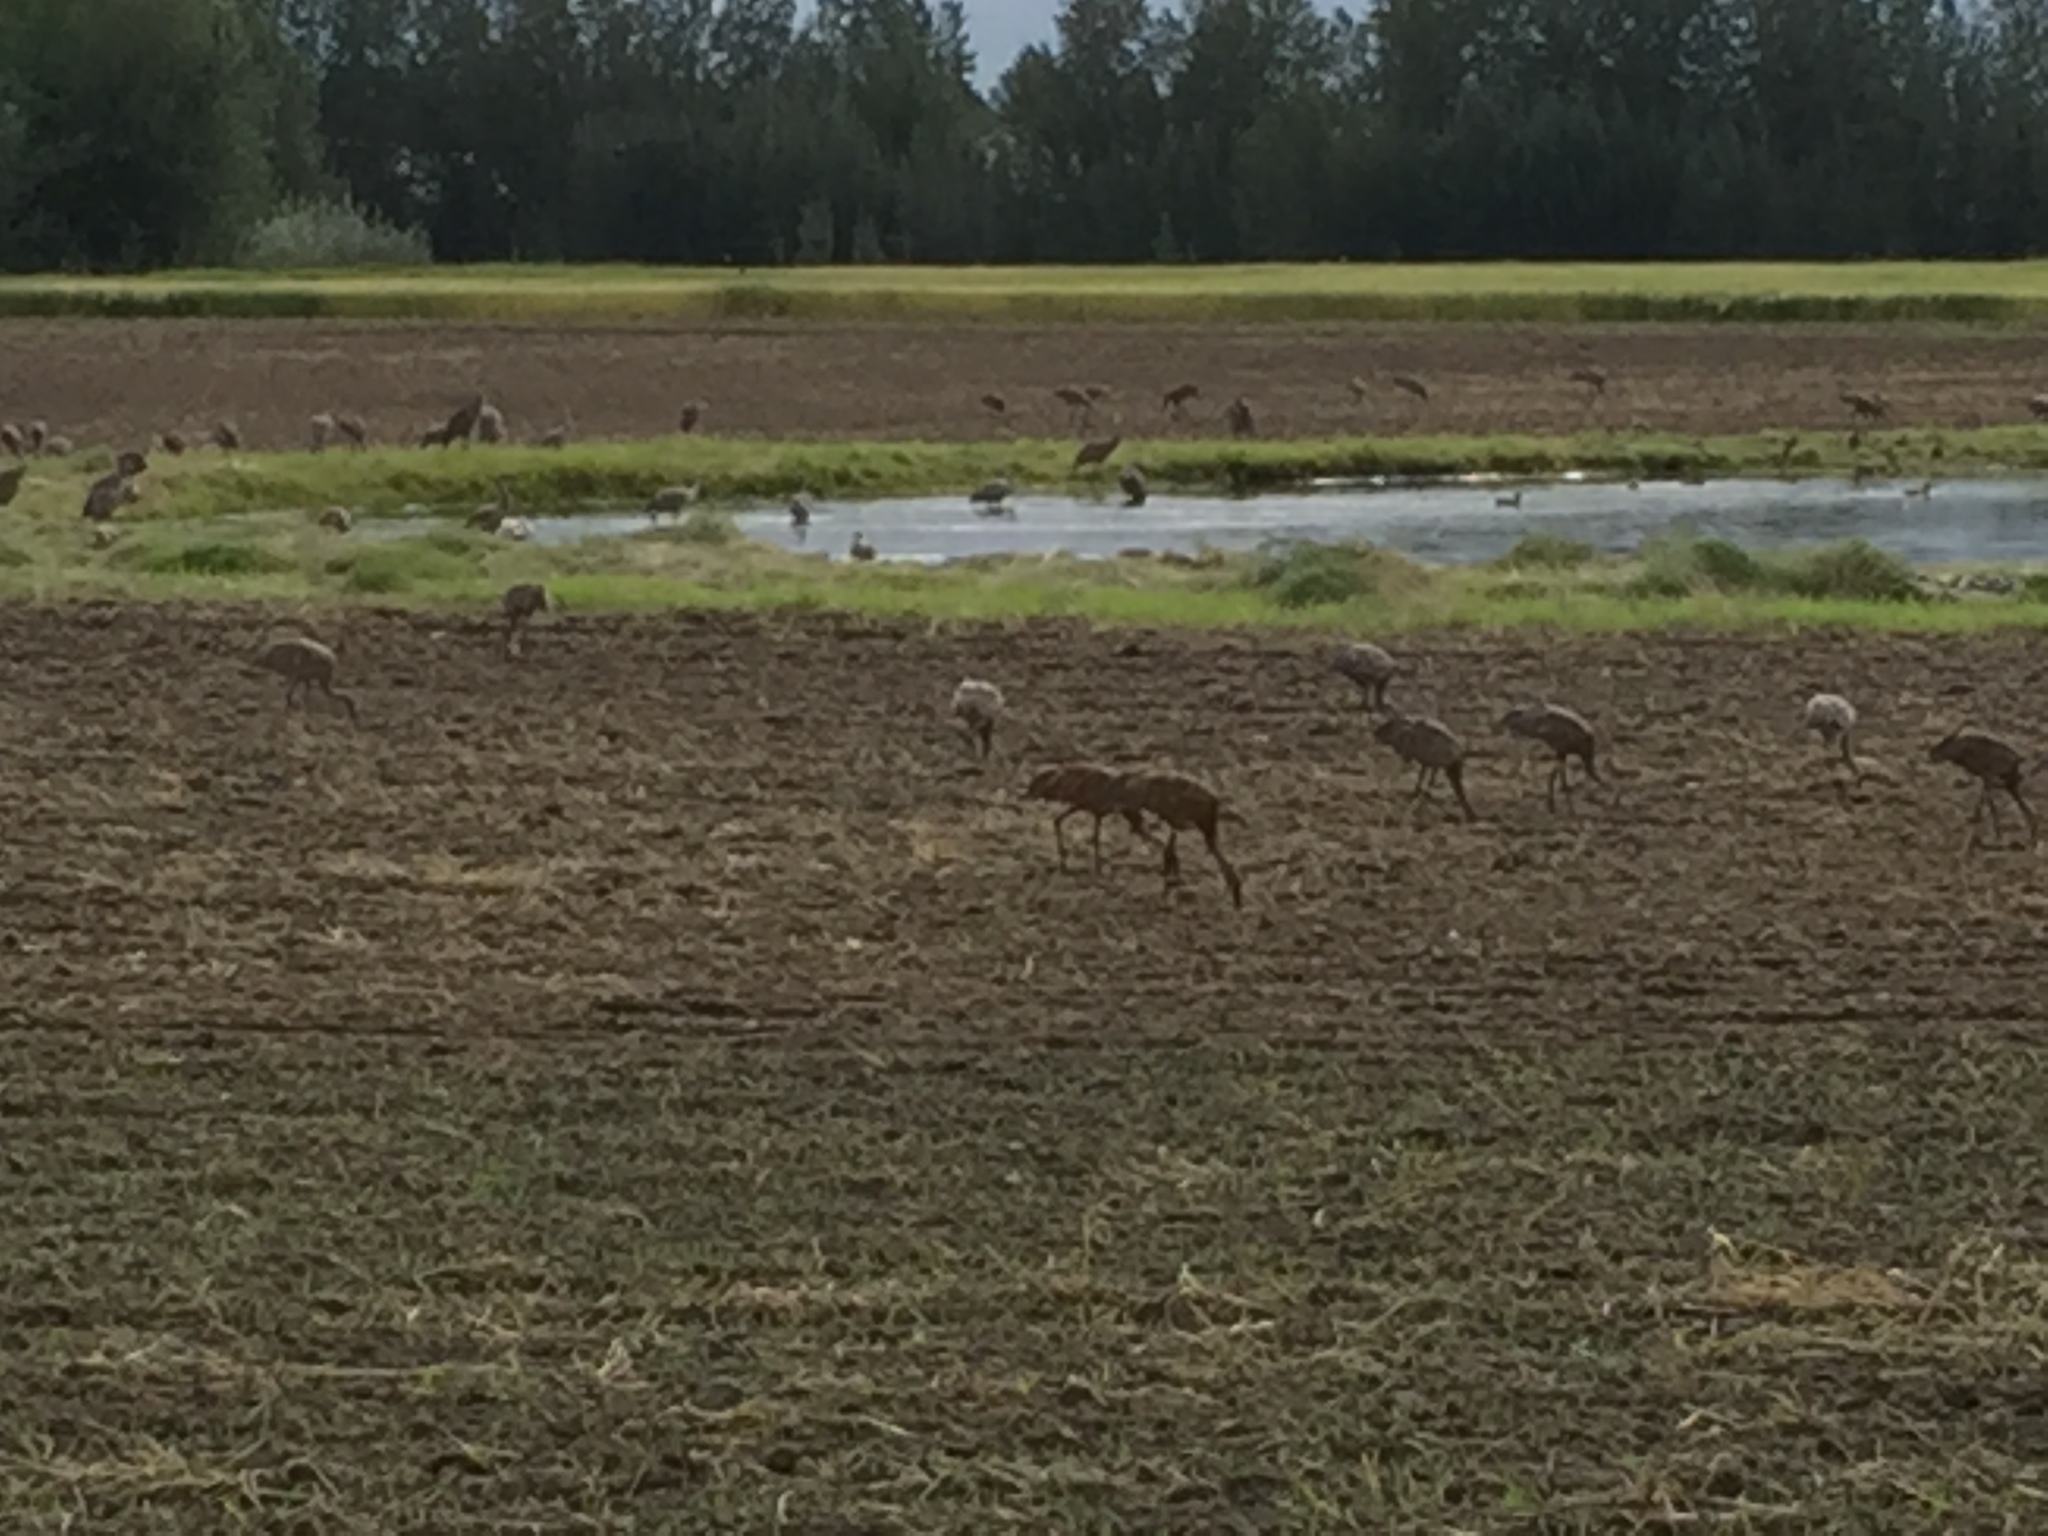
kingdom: Animalia
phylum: Chordata
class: Aves
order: Gruiformes
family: Gruidae
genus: Grus
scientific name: Grus canadensis
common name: Sandhill crane
